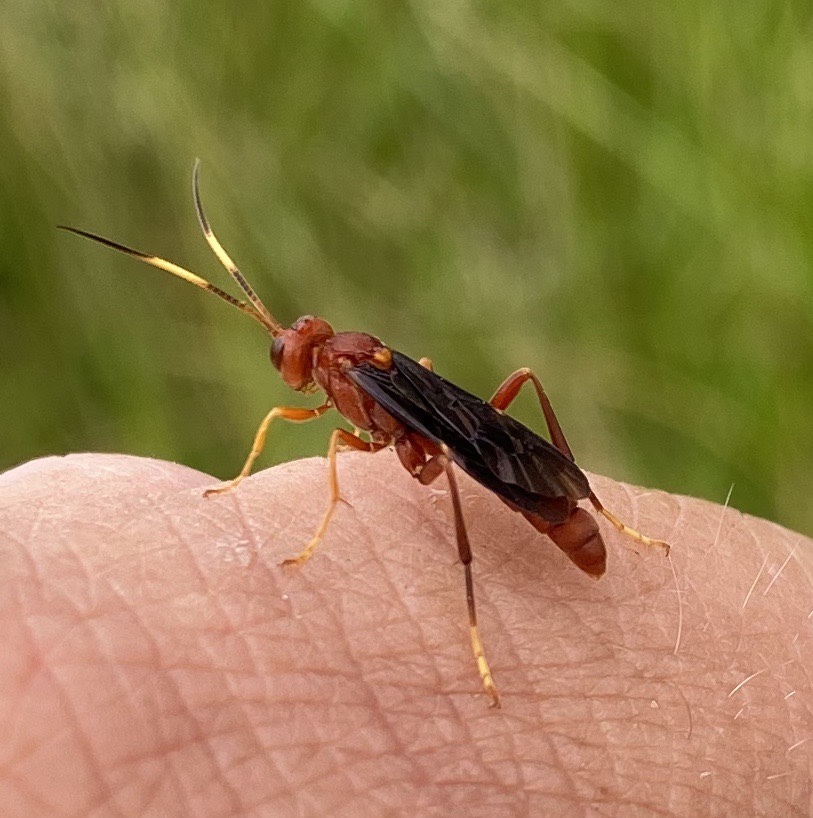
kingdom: Animalia
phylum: Arthropoda
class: Insecta
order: Hymenoptera
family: Ichneumonidae
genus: Trogomorpha
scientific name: Trogomorpha trogiformis
